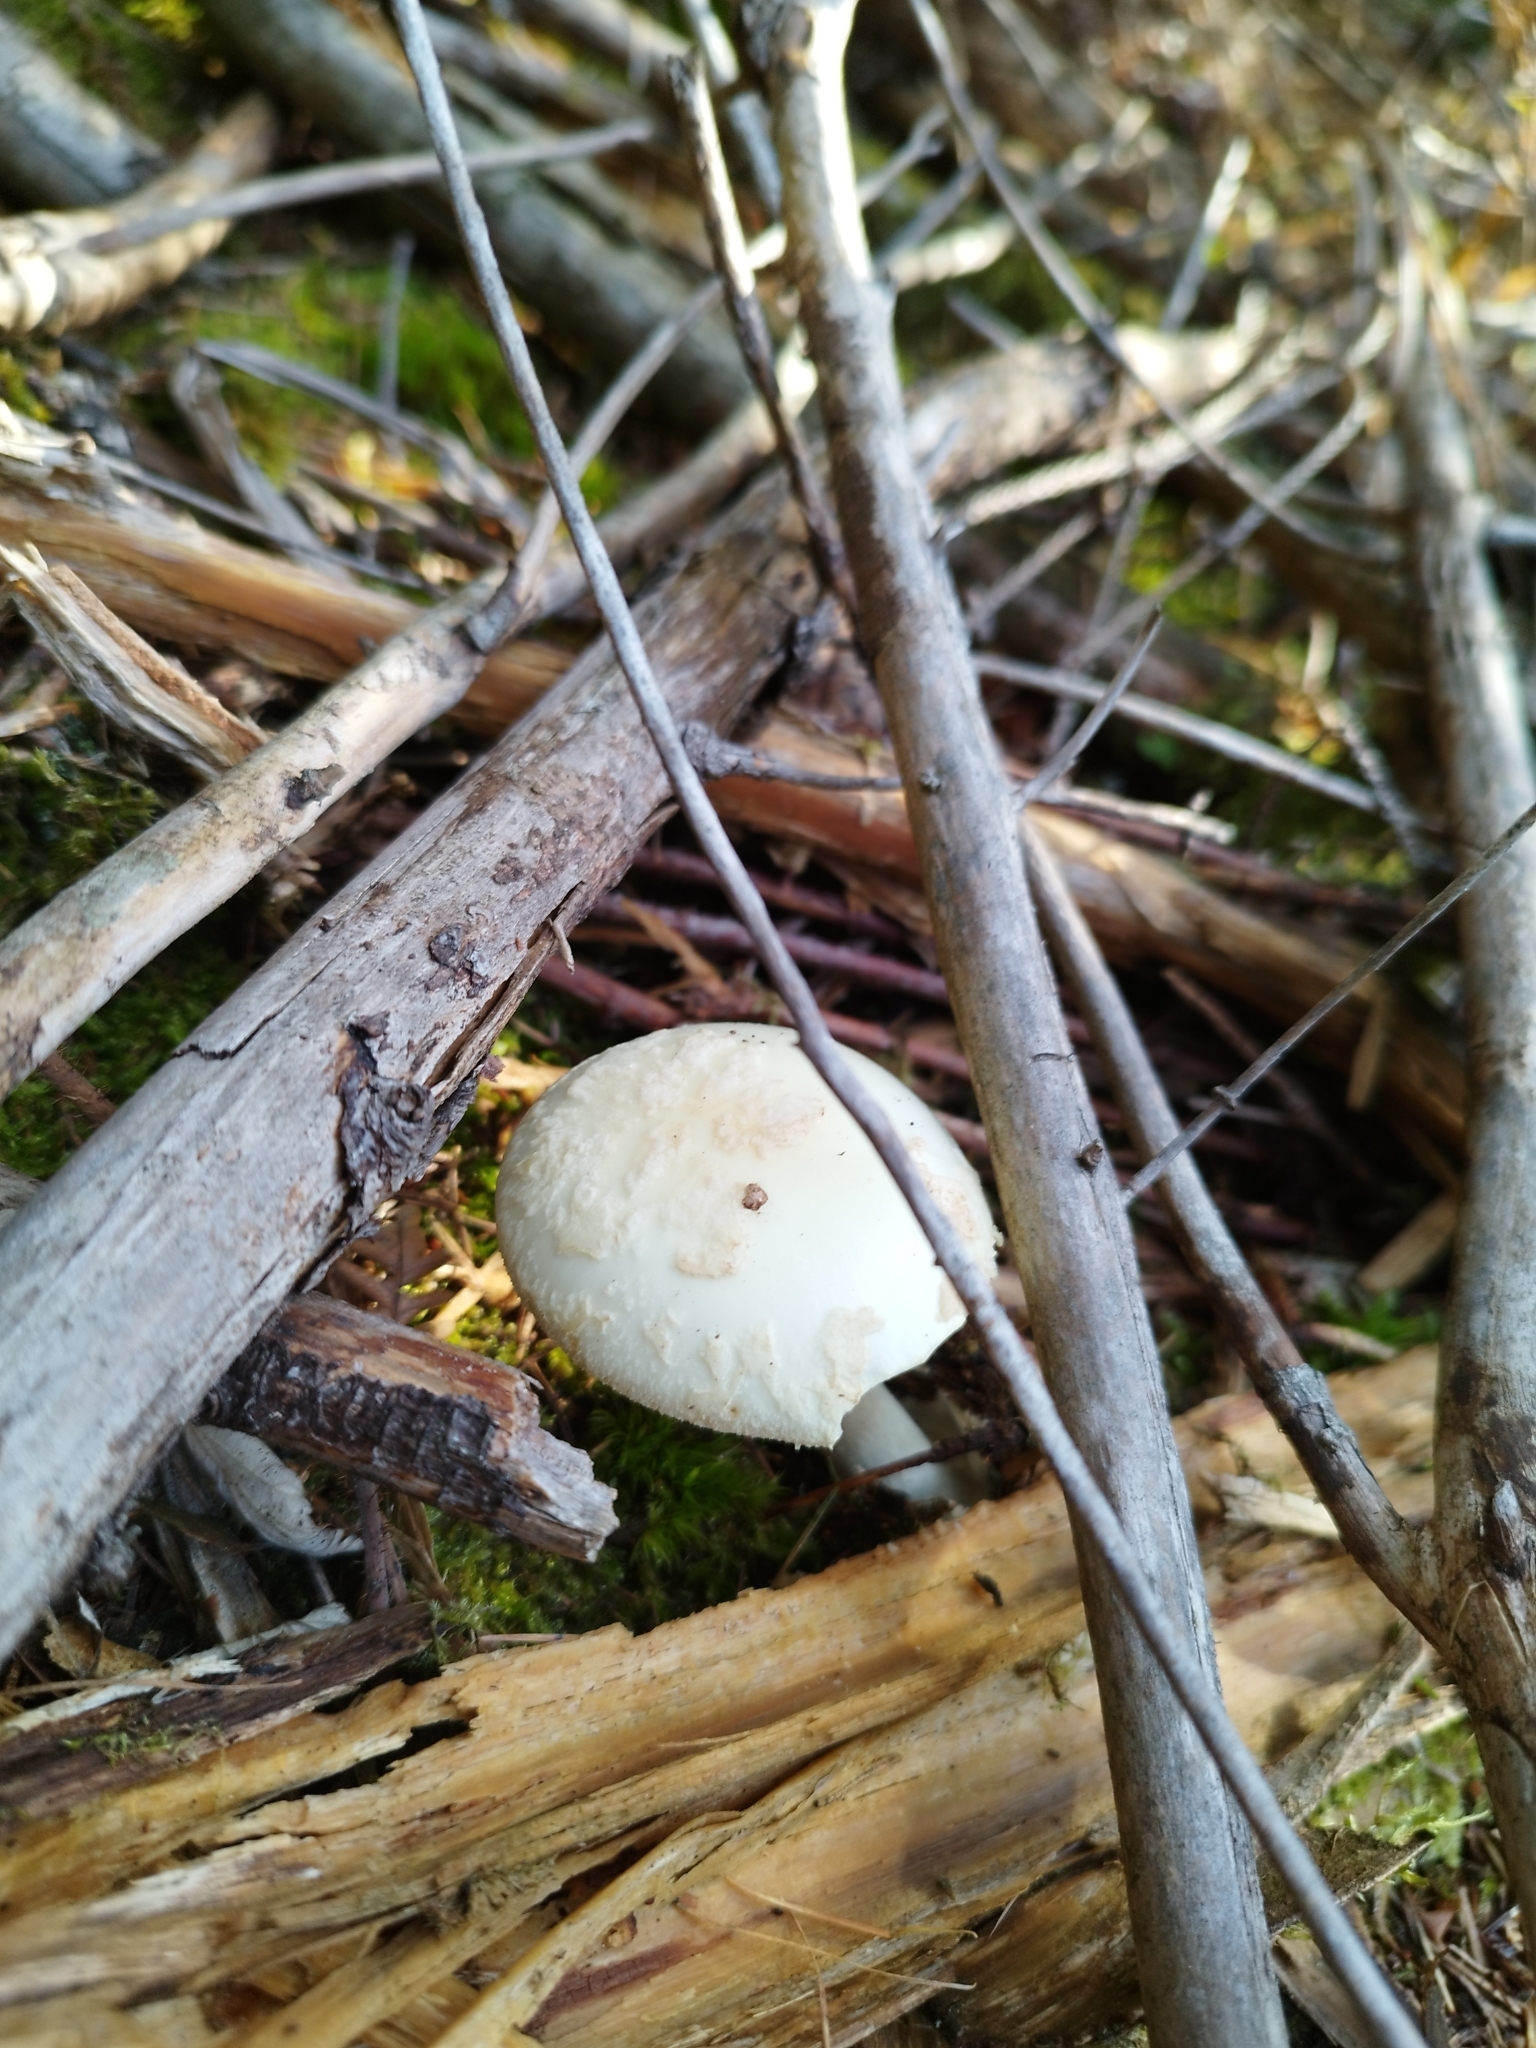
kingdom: Fungi
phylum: Basidiomycota
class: Agaricomycetes
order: Agaricales
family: Amanitaceae
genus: Amanita
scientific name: Amanita citrina
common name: False death-cap
